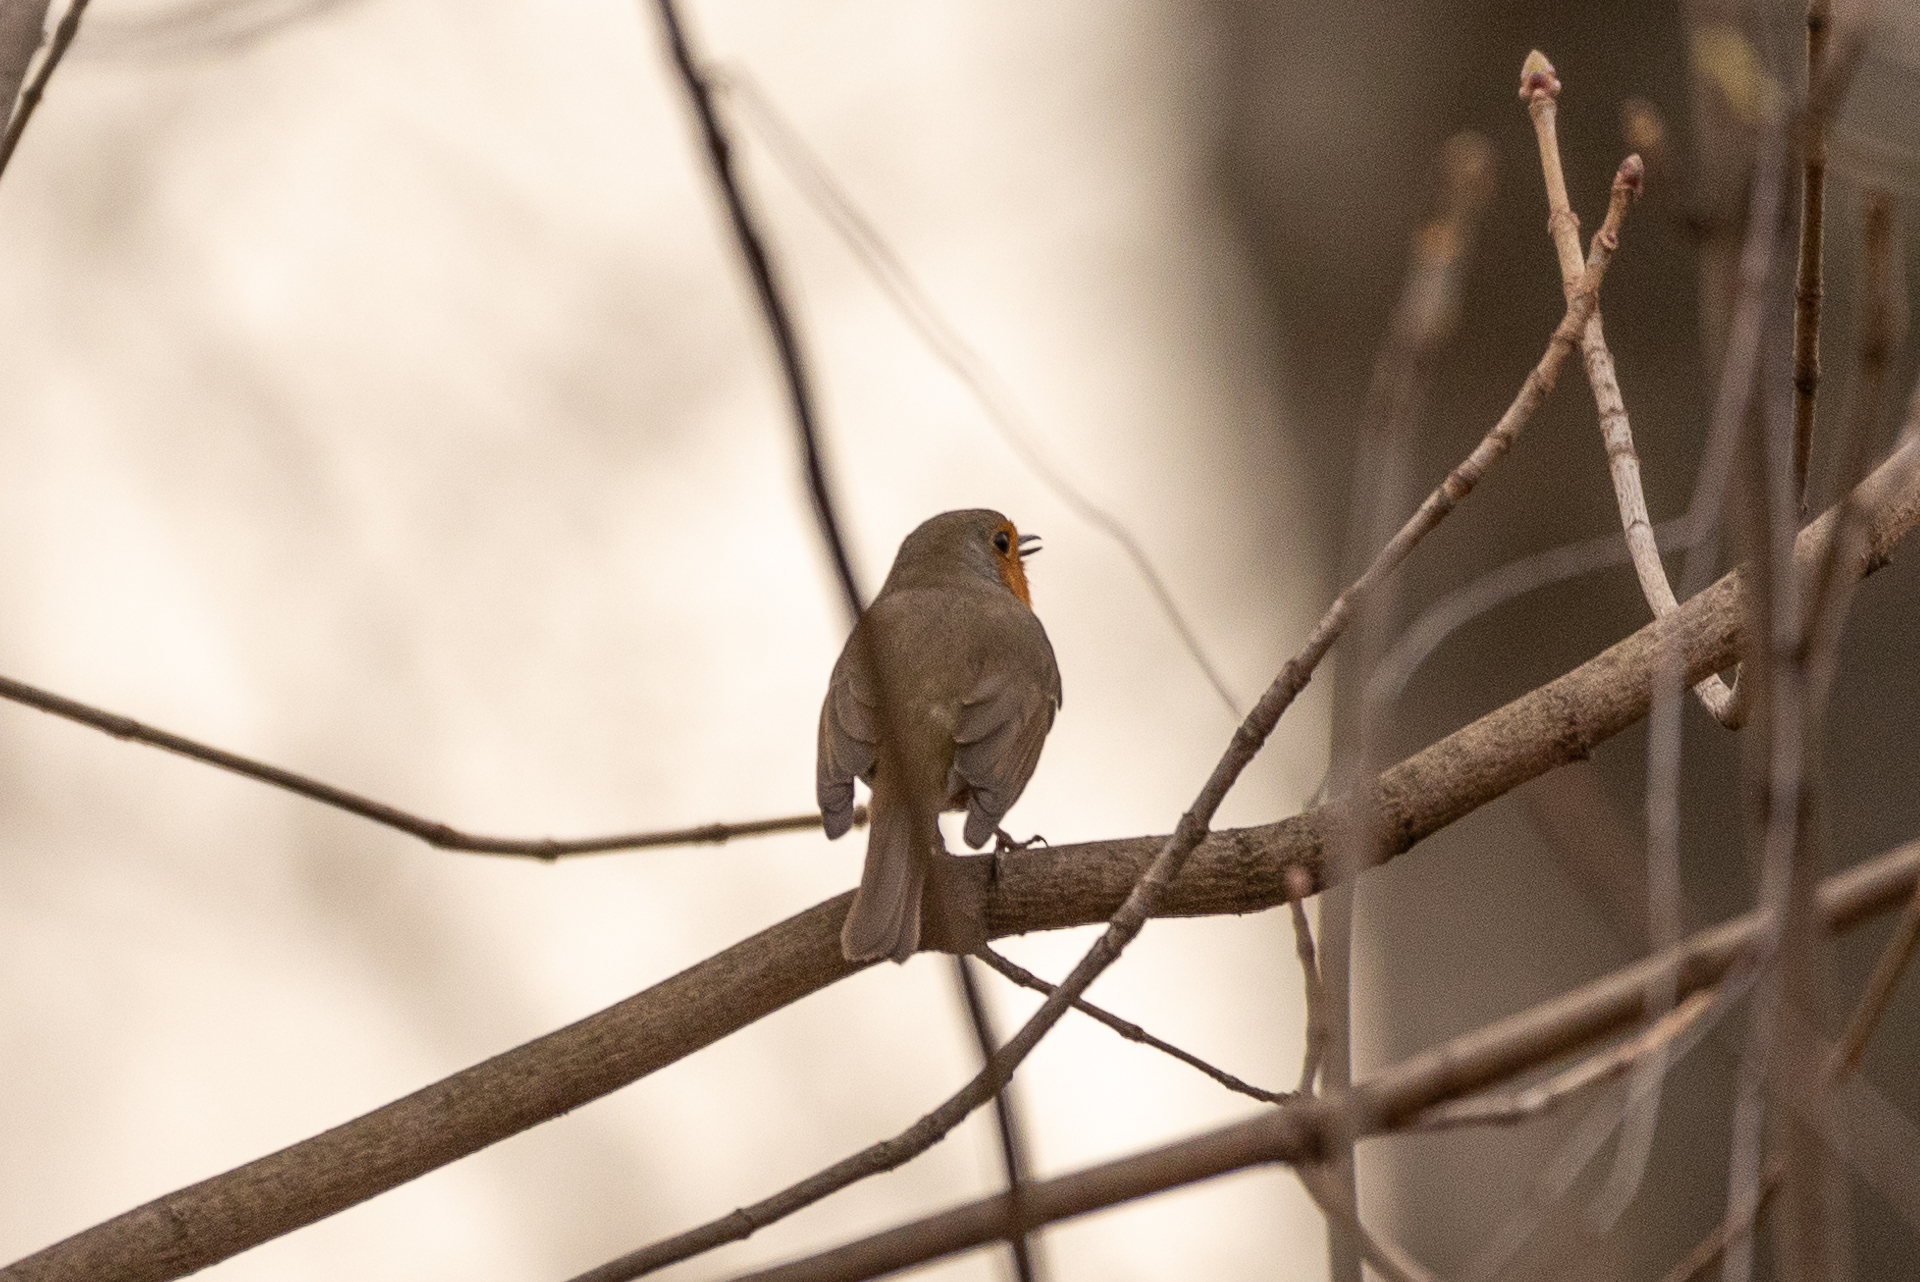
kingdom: Animalia
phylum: Chordata
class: Aves
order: Passeriformes
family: Muscicapidae
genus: Erithacus
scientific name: Erithacus rubecula
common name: European robin
